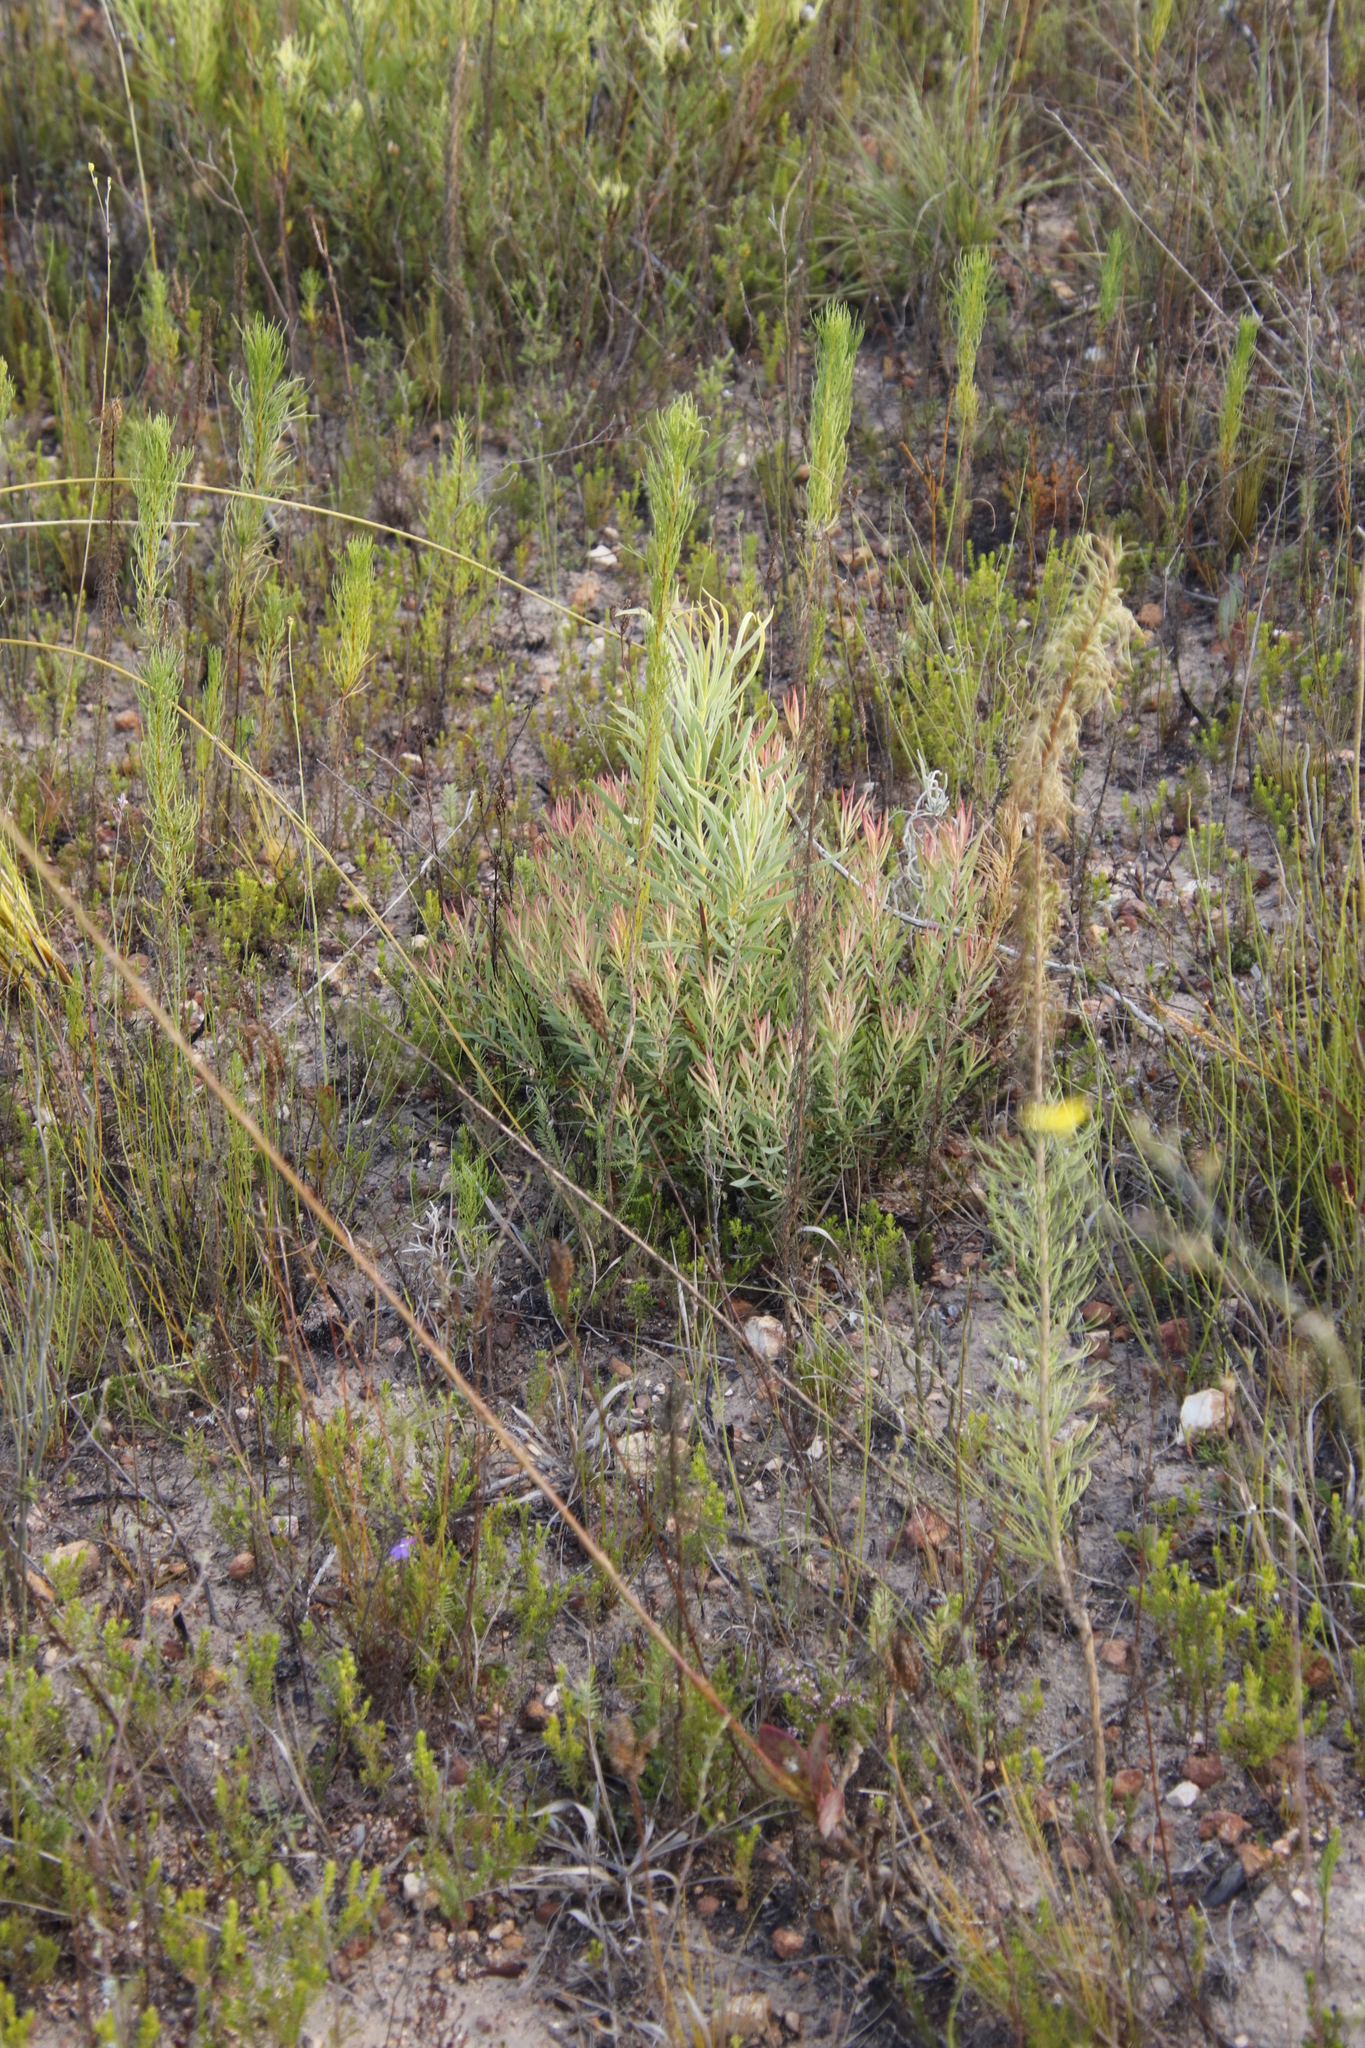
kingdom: Plantae
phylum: Tracheophyta
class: Magnoliopsida
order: Proteales
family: Proteaceae
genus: Leucadendron
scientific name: Leucadendron salignum
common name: Common sunshine conebush
